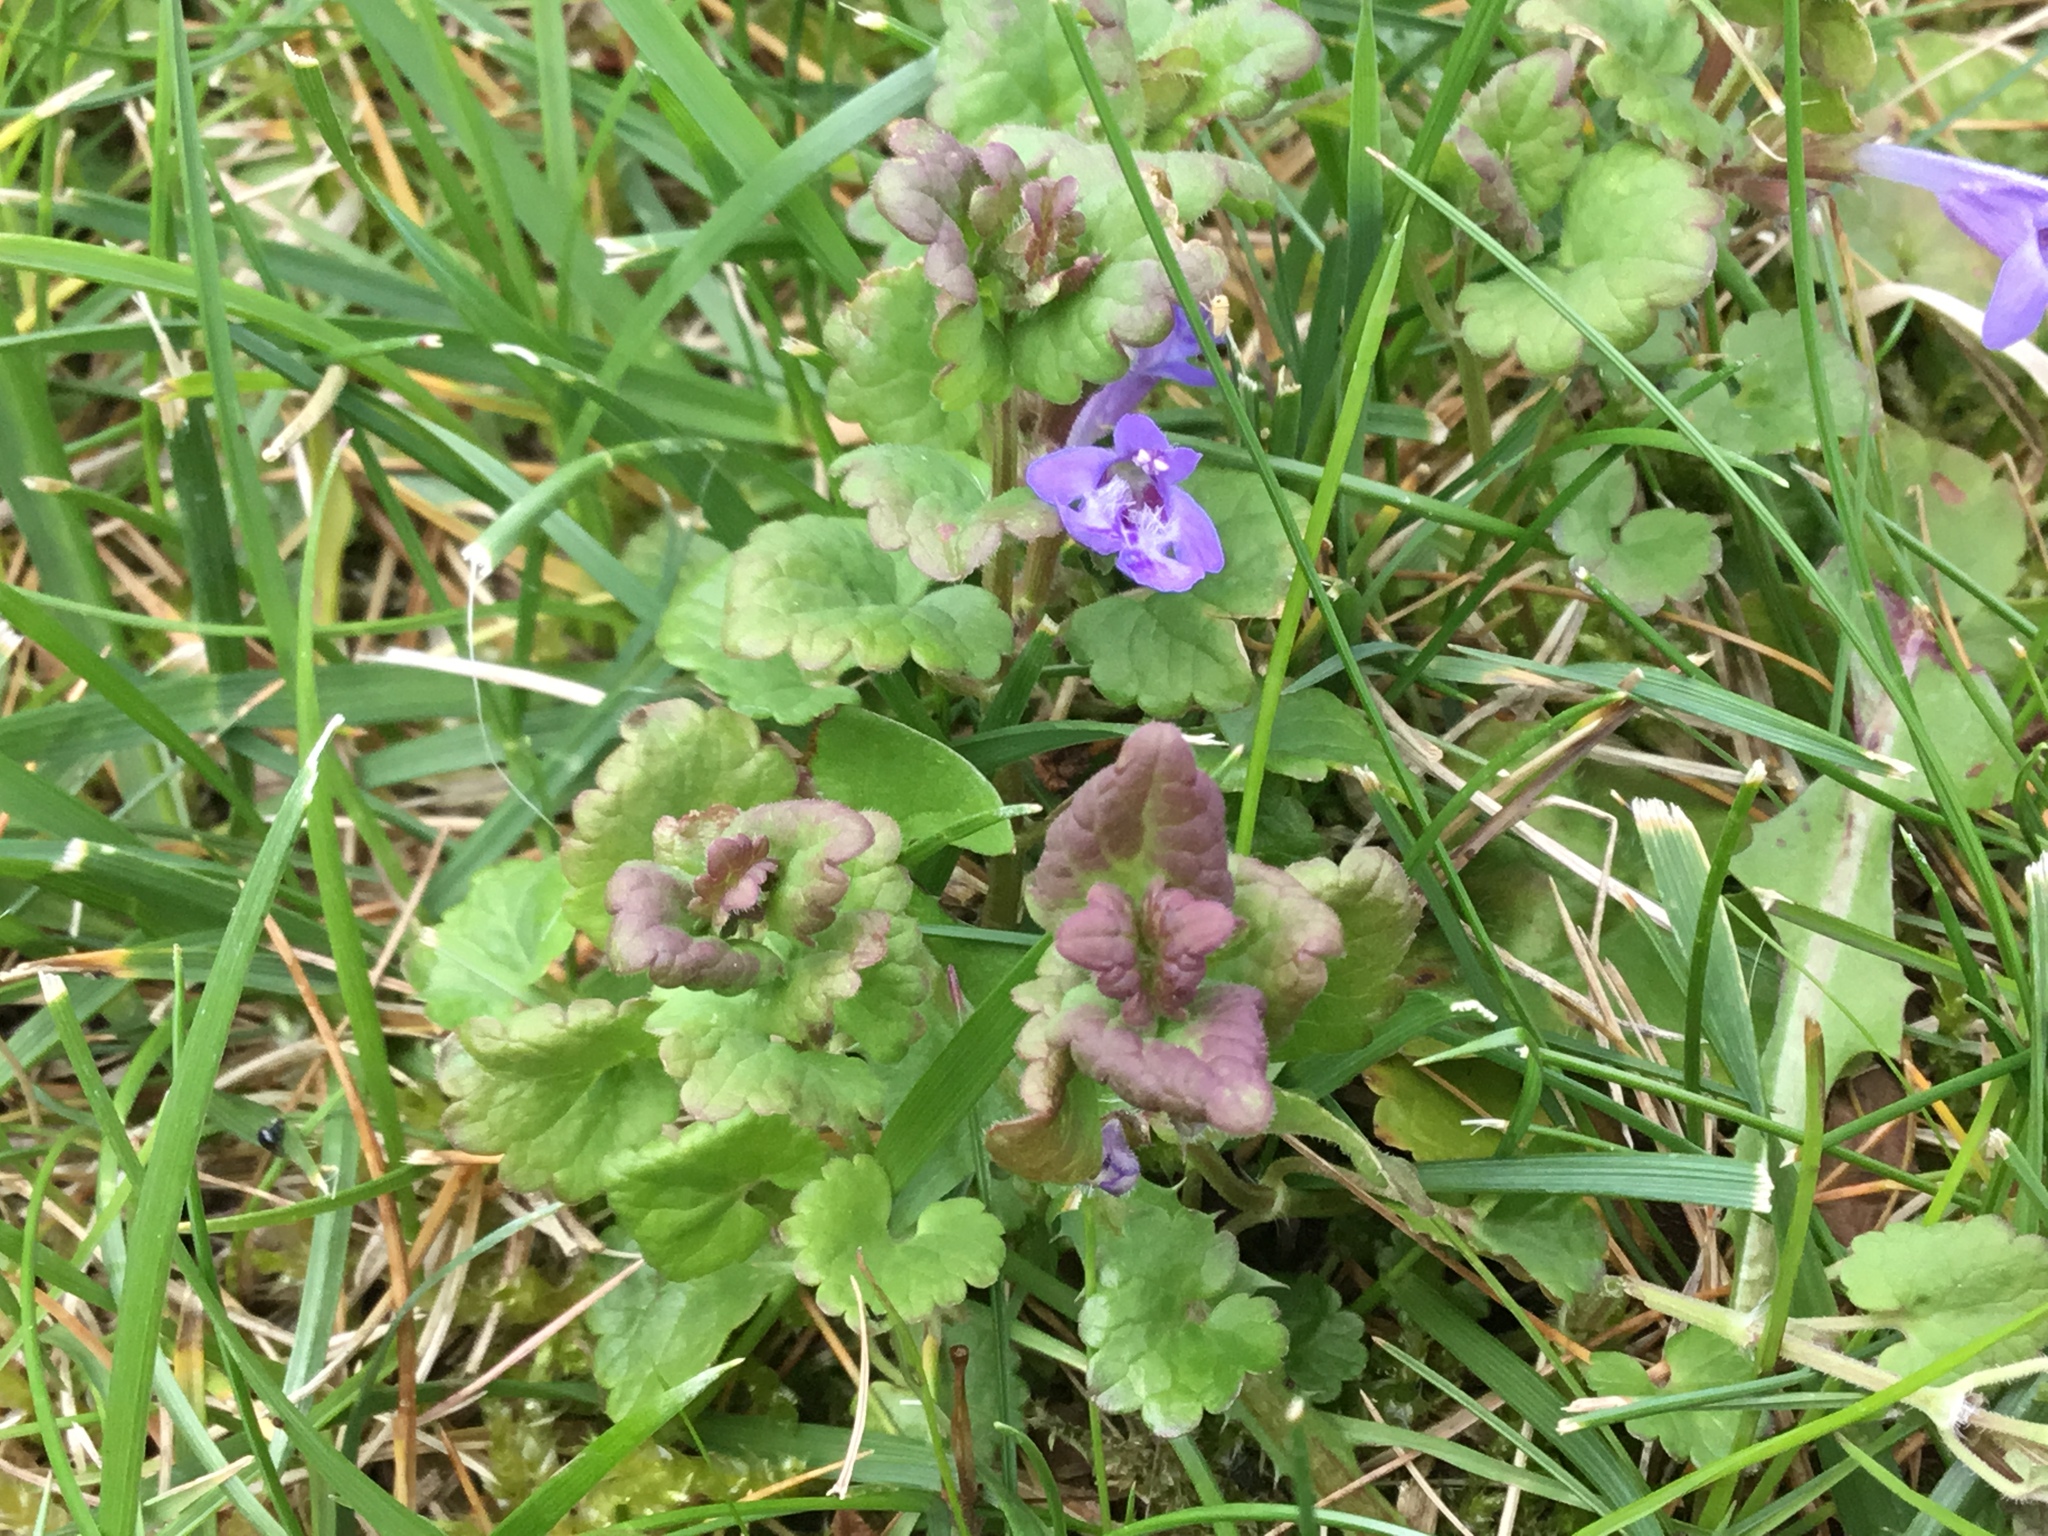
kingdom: Plantae
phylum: Tracheophyta
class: Magnoliopsida
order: Lamiales
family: Lamiaceae
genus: Glechoma
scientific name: Glechoma hederacea
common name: Ground ivy
